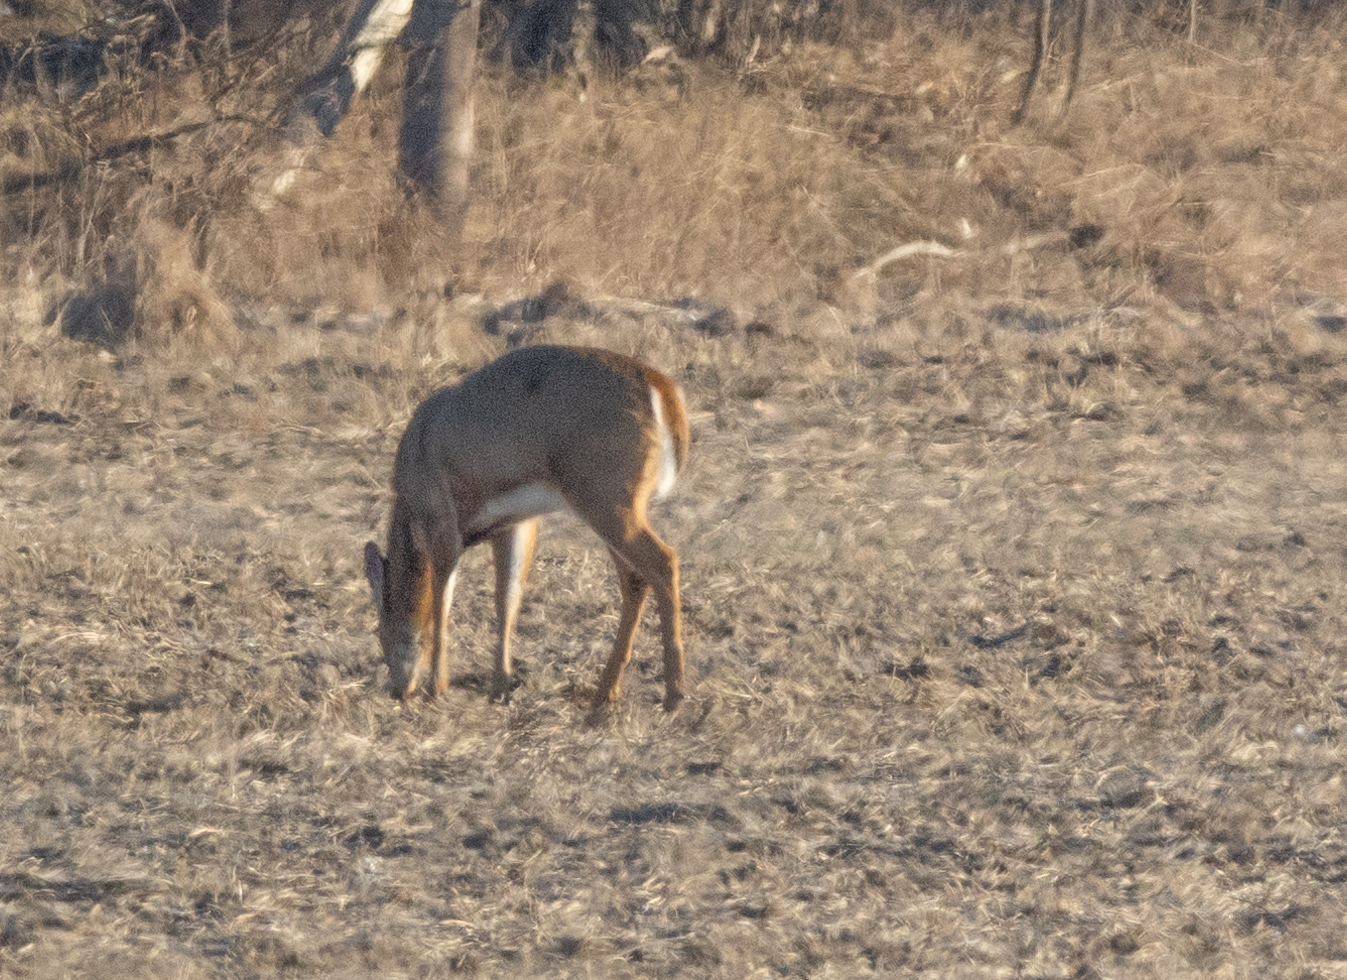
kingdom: Animalia
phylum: Chordata
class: Mammalia
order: Artiodactyla
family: Cervidae
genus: Odocoileus
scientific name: Odocoileus virginianus
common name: White-tailed deer
